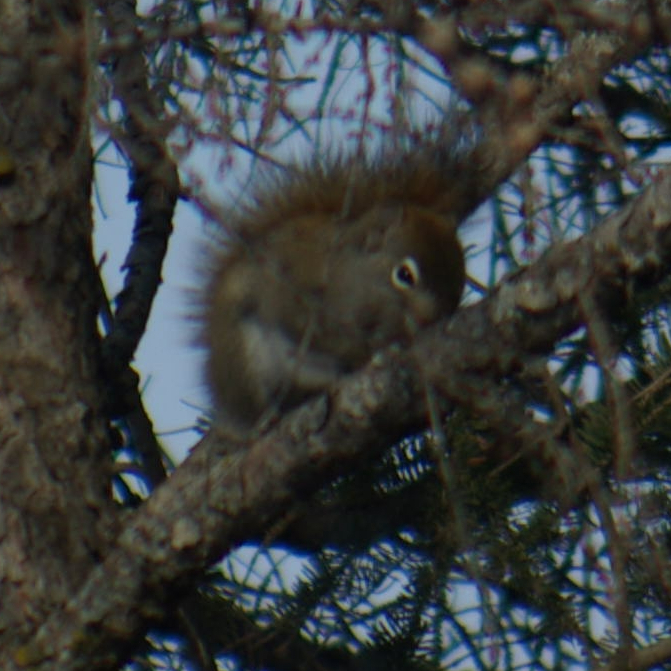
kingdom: Animalia
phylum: Chordata
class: Mammalia
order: Rodentia
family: Sciuridae
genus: Tamiasciurus
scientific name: Tamiasciurus hudsonicus
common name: Red squirrel
